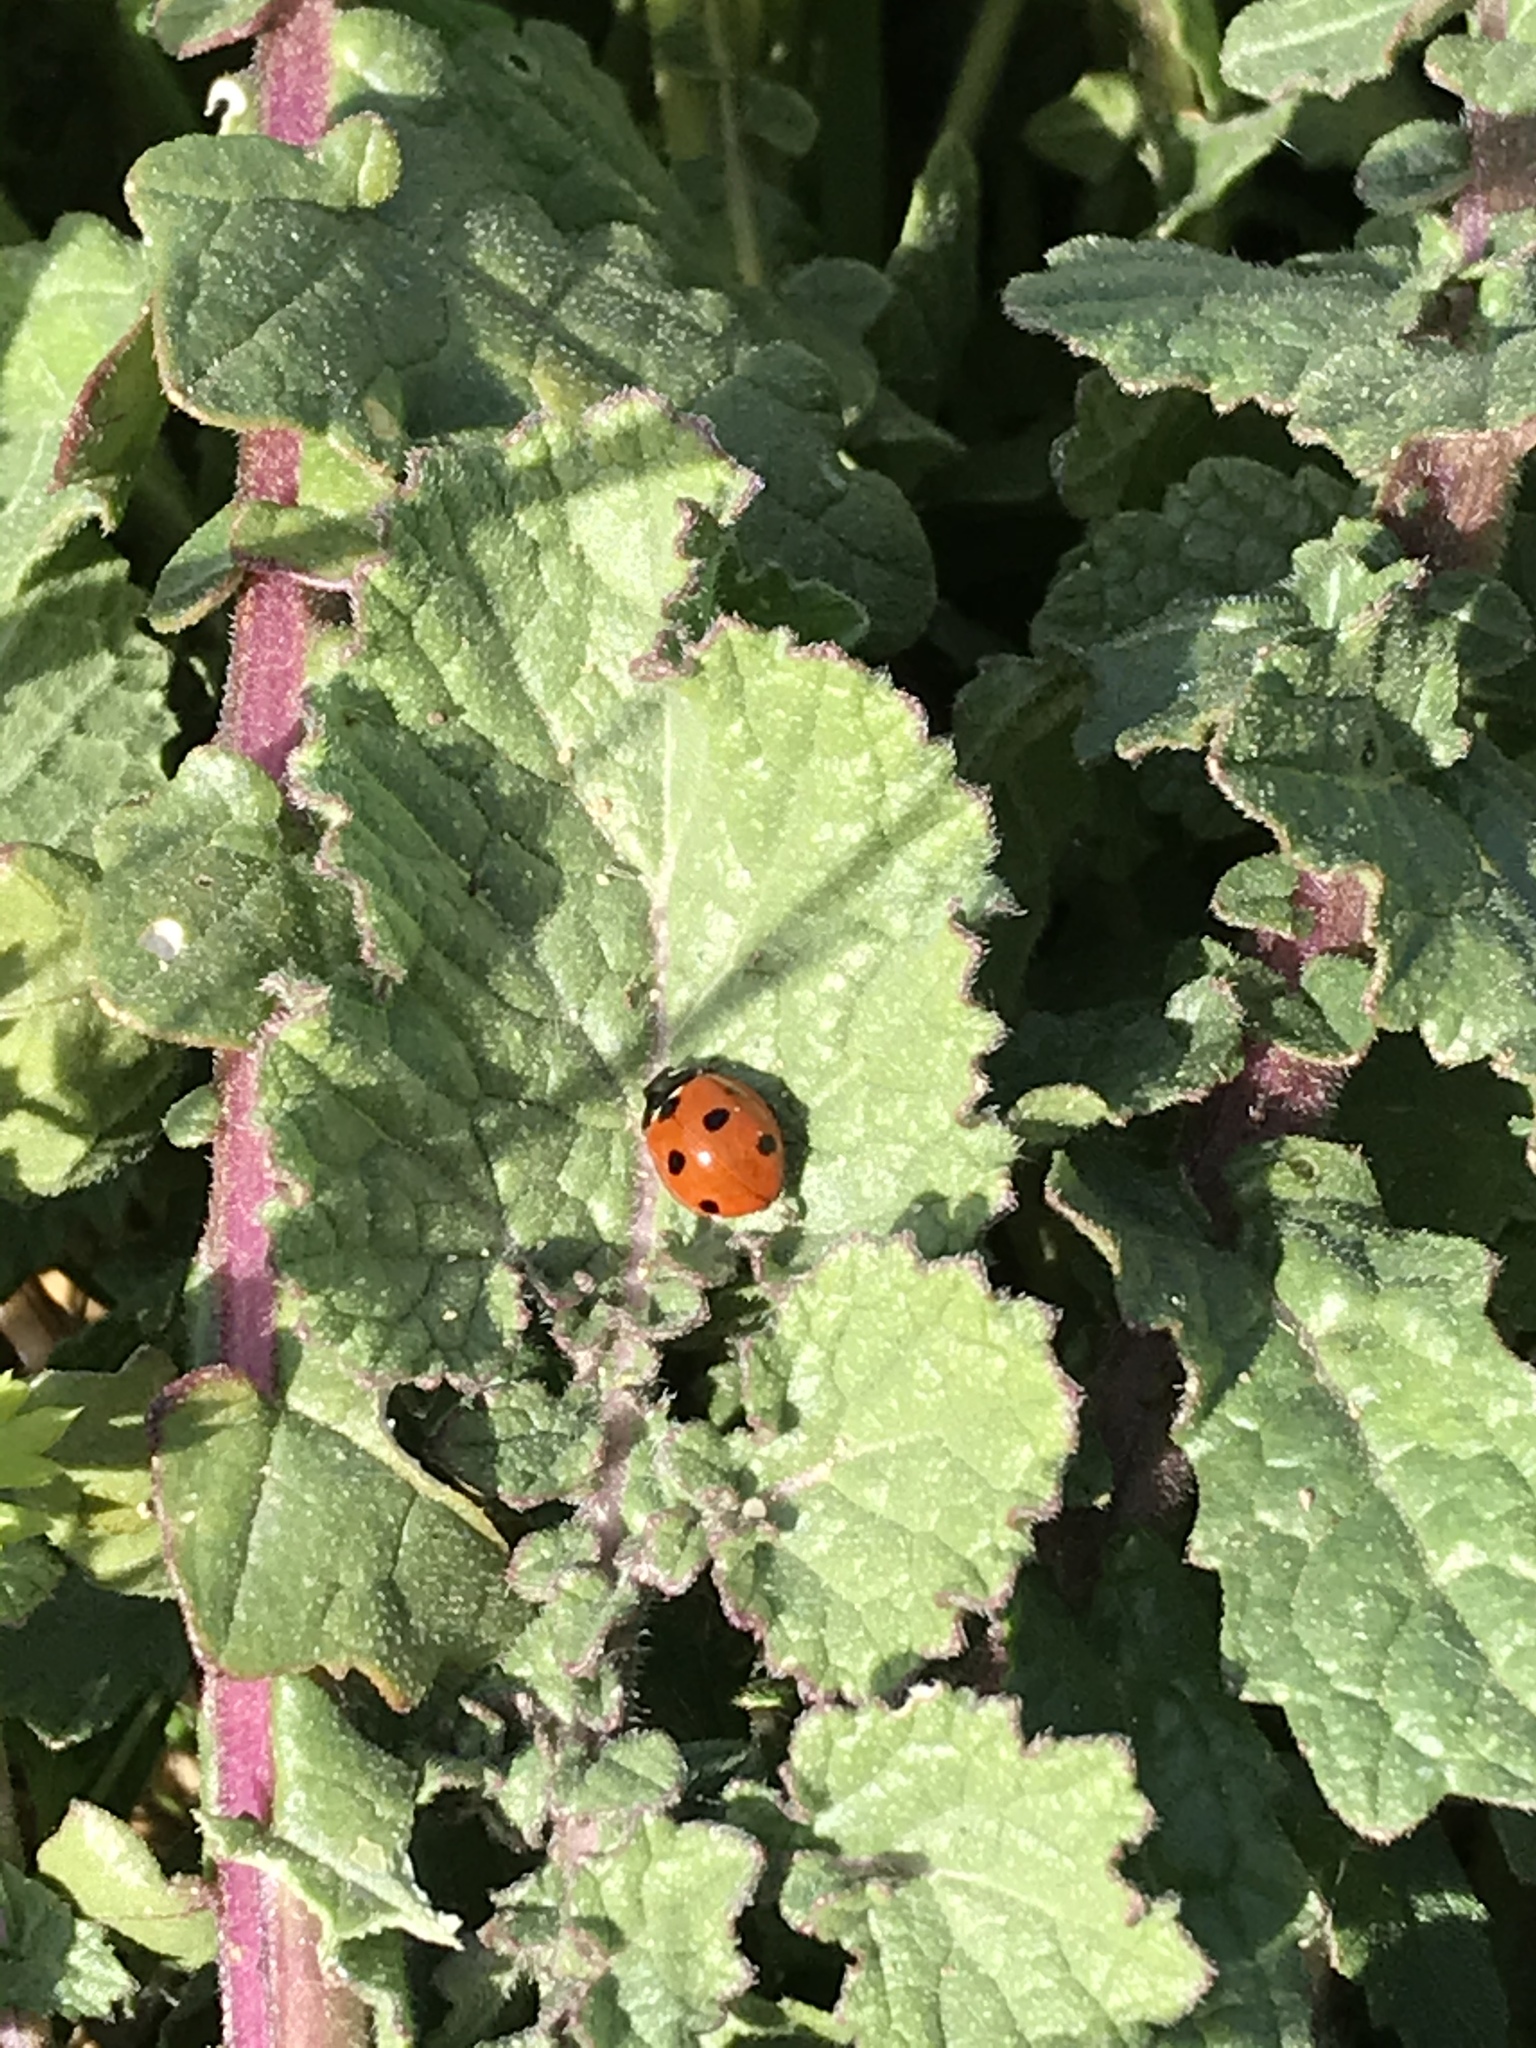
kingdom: Animalia
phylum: Arthropoda
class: Insecta
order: Coleoptera
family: Coccinellidae
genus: Coccinella
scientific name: Coccinella septempunctata
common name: Sevenspotted lady beetle
